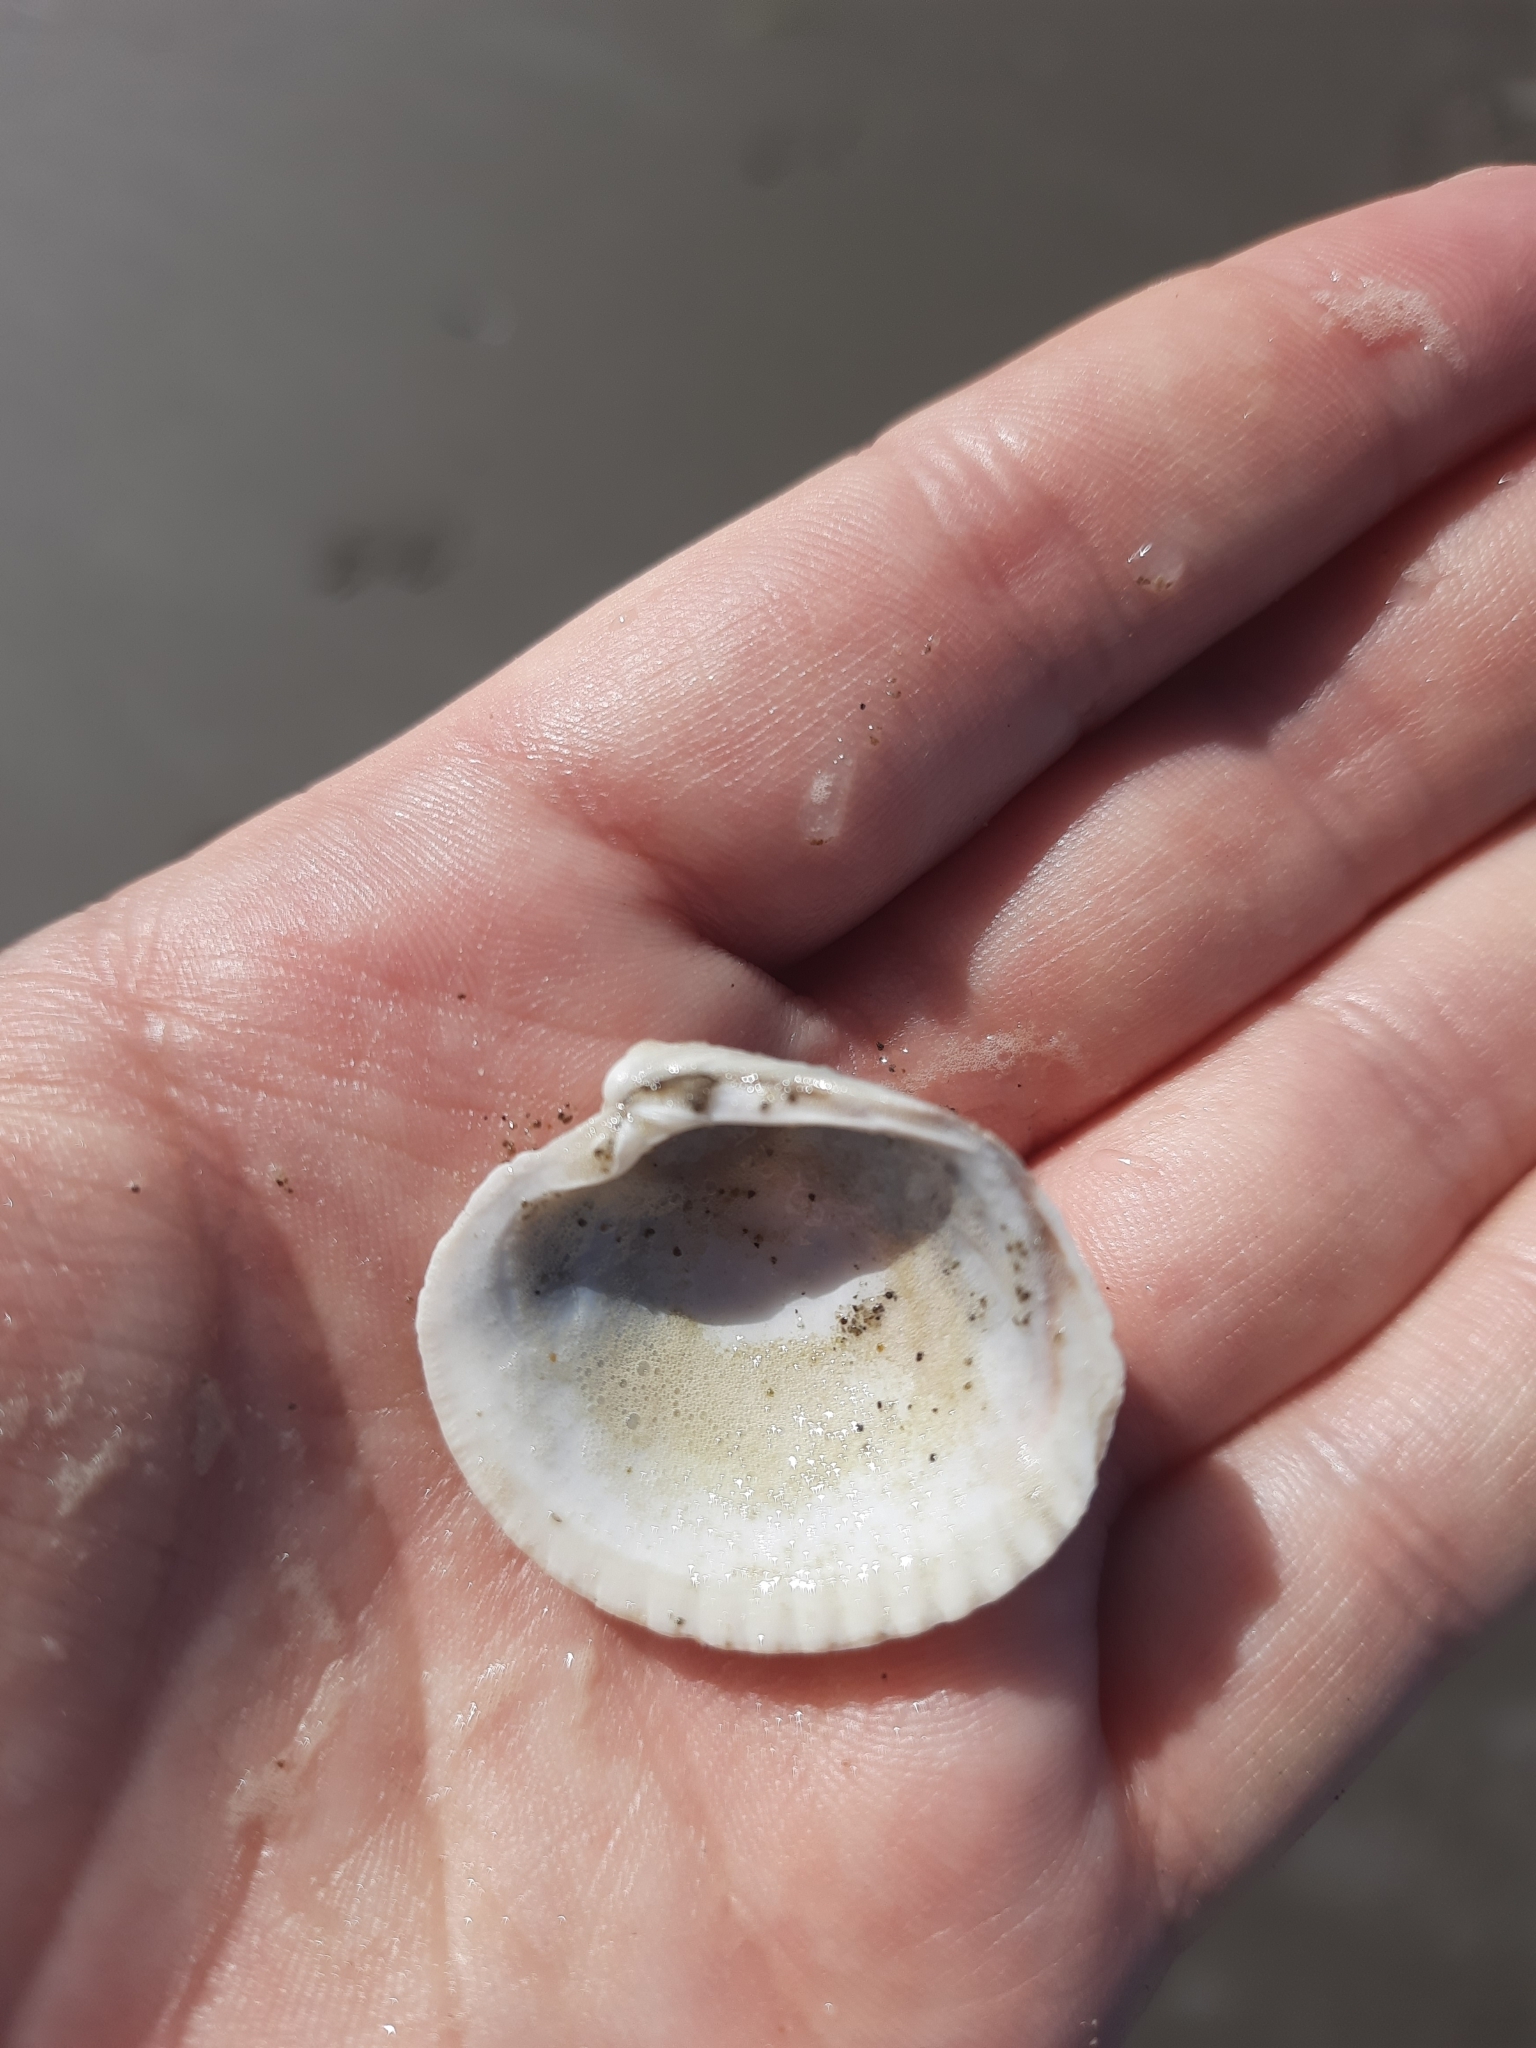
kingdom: Animalia
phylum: Mollusca
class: Bivalvia
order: Venerida
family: Veneridae
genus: Austrovenus
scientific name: Austrovenus stutchburyi
